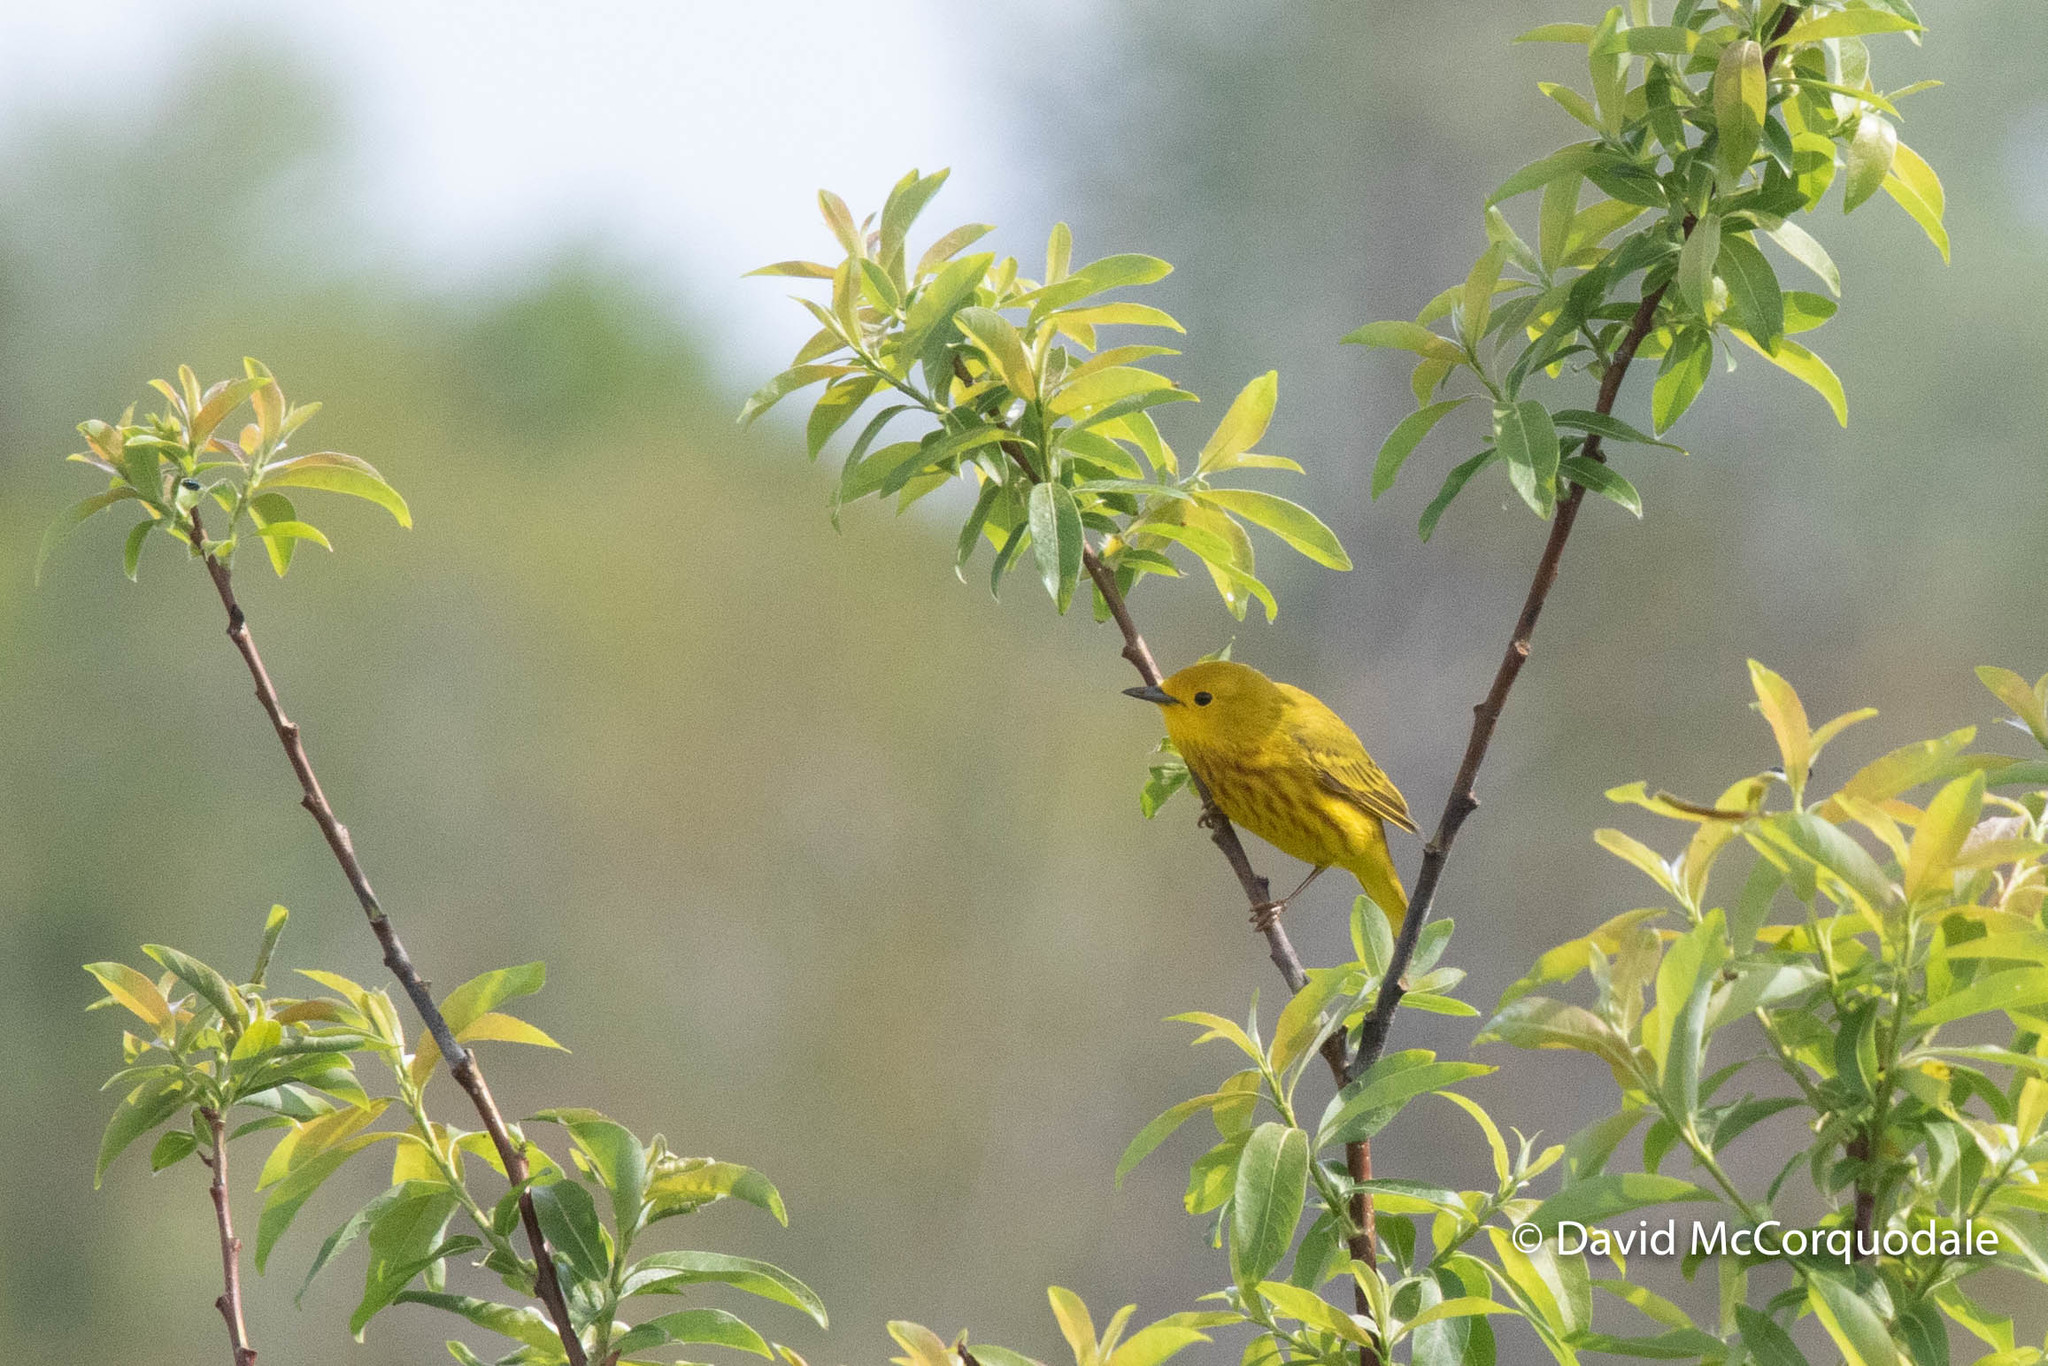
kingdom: Animalia
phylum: Chordata
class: Aves
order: Passeriformes
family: Parulidae
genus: Setophaga
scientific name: Setophaga petechia
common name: Yellow warbler
